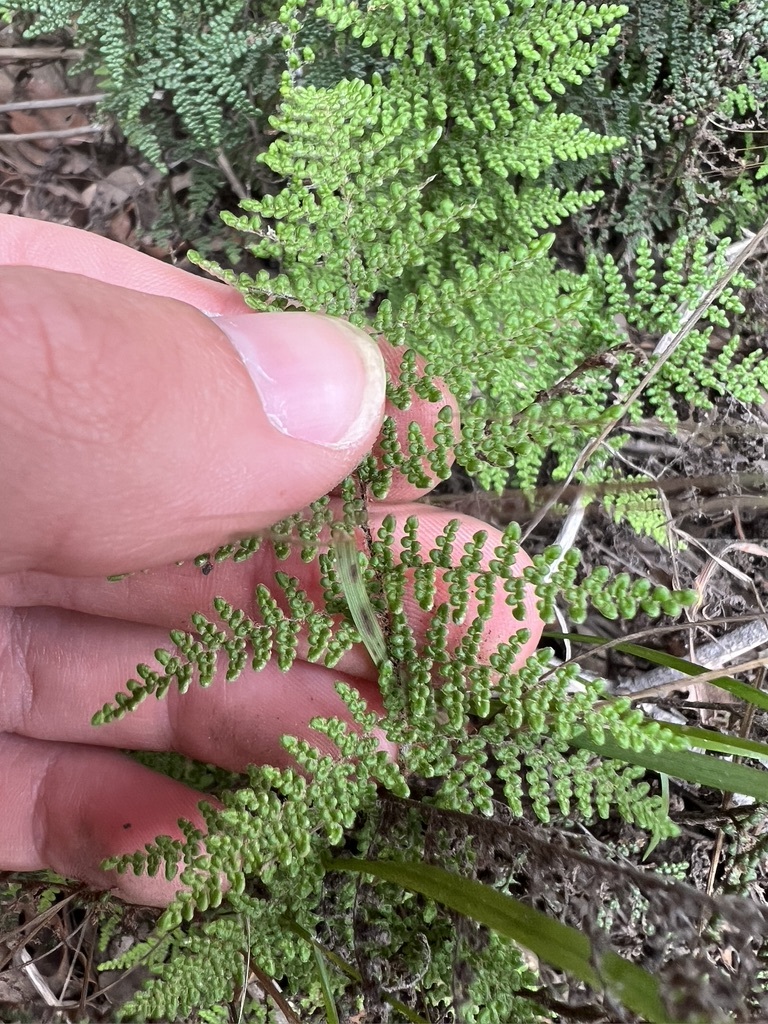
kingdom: Plantae
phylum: Tracheophyta
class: Polypodiopsida
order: Polypodiales
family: Pteridaceae
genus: Myriopteris
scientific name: Myriopteris clevelandii
